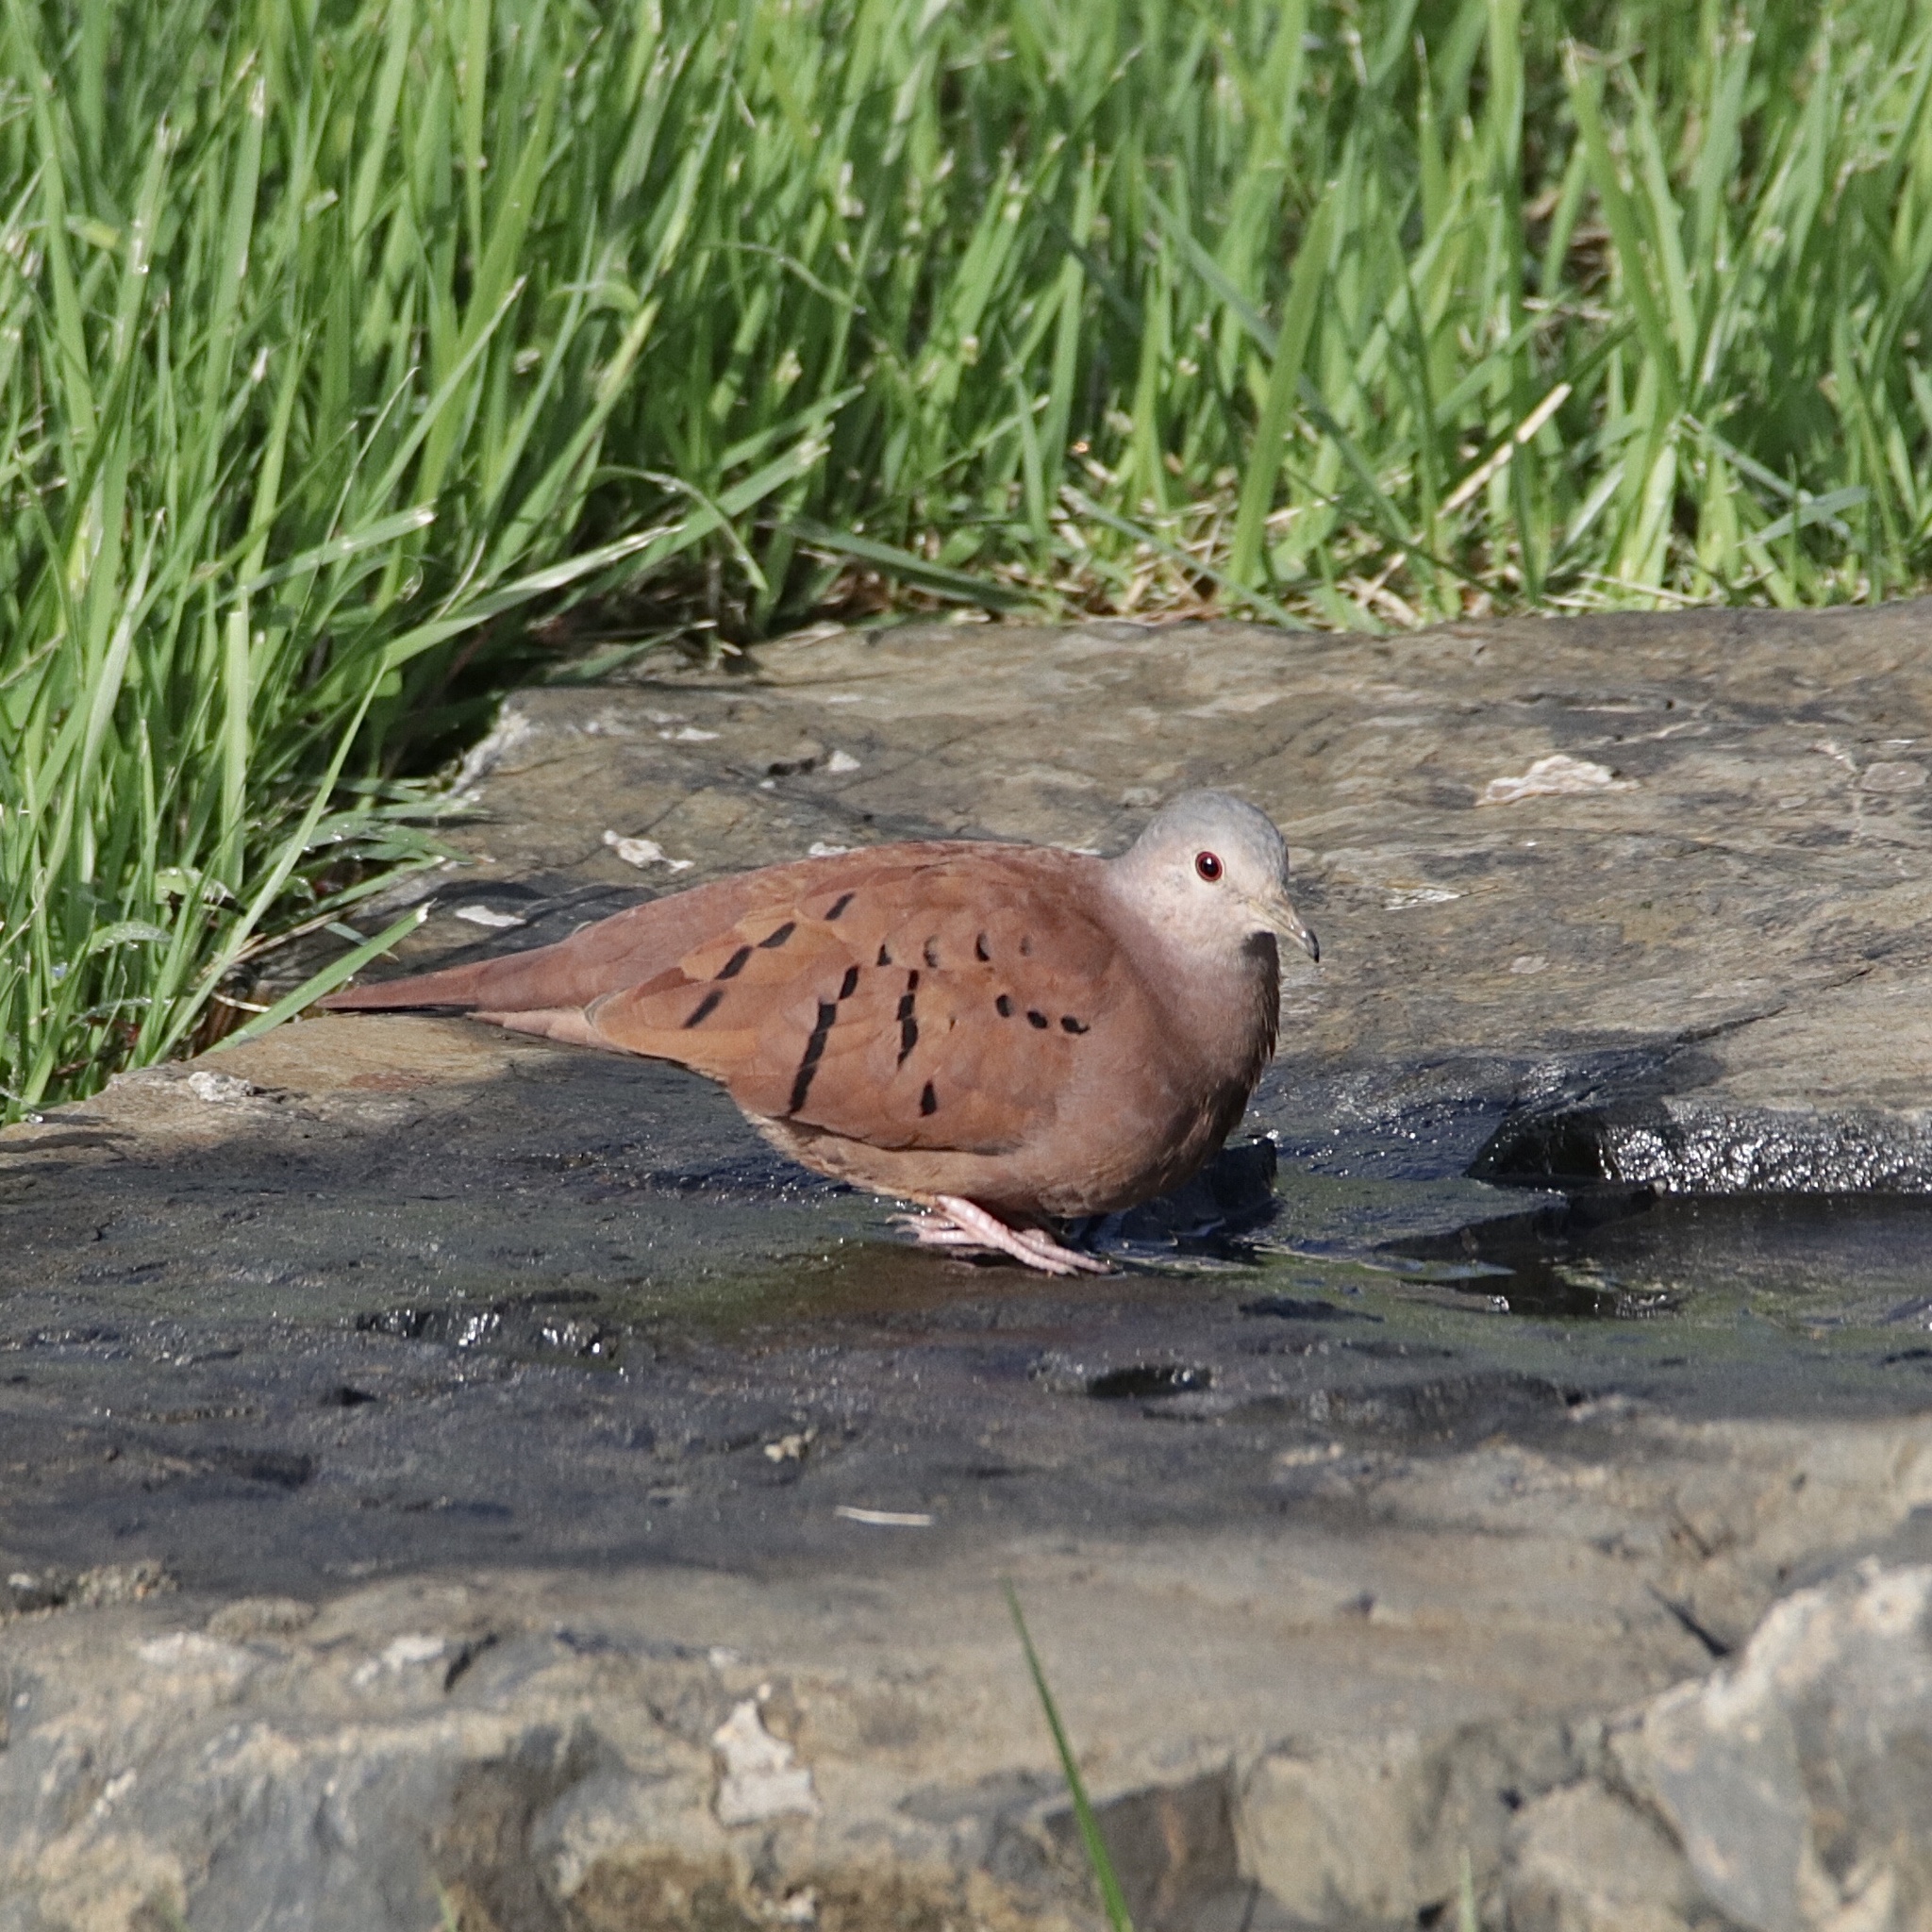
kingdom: Animalia
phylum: Chordata
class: Aves
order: Columbiformes
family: Columbidae
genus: Columbina
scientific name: Columbina talpacoti
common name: Ruddy ground dove
